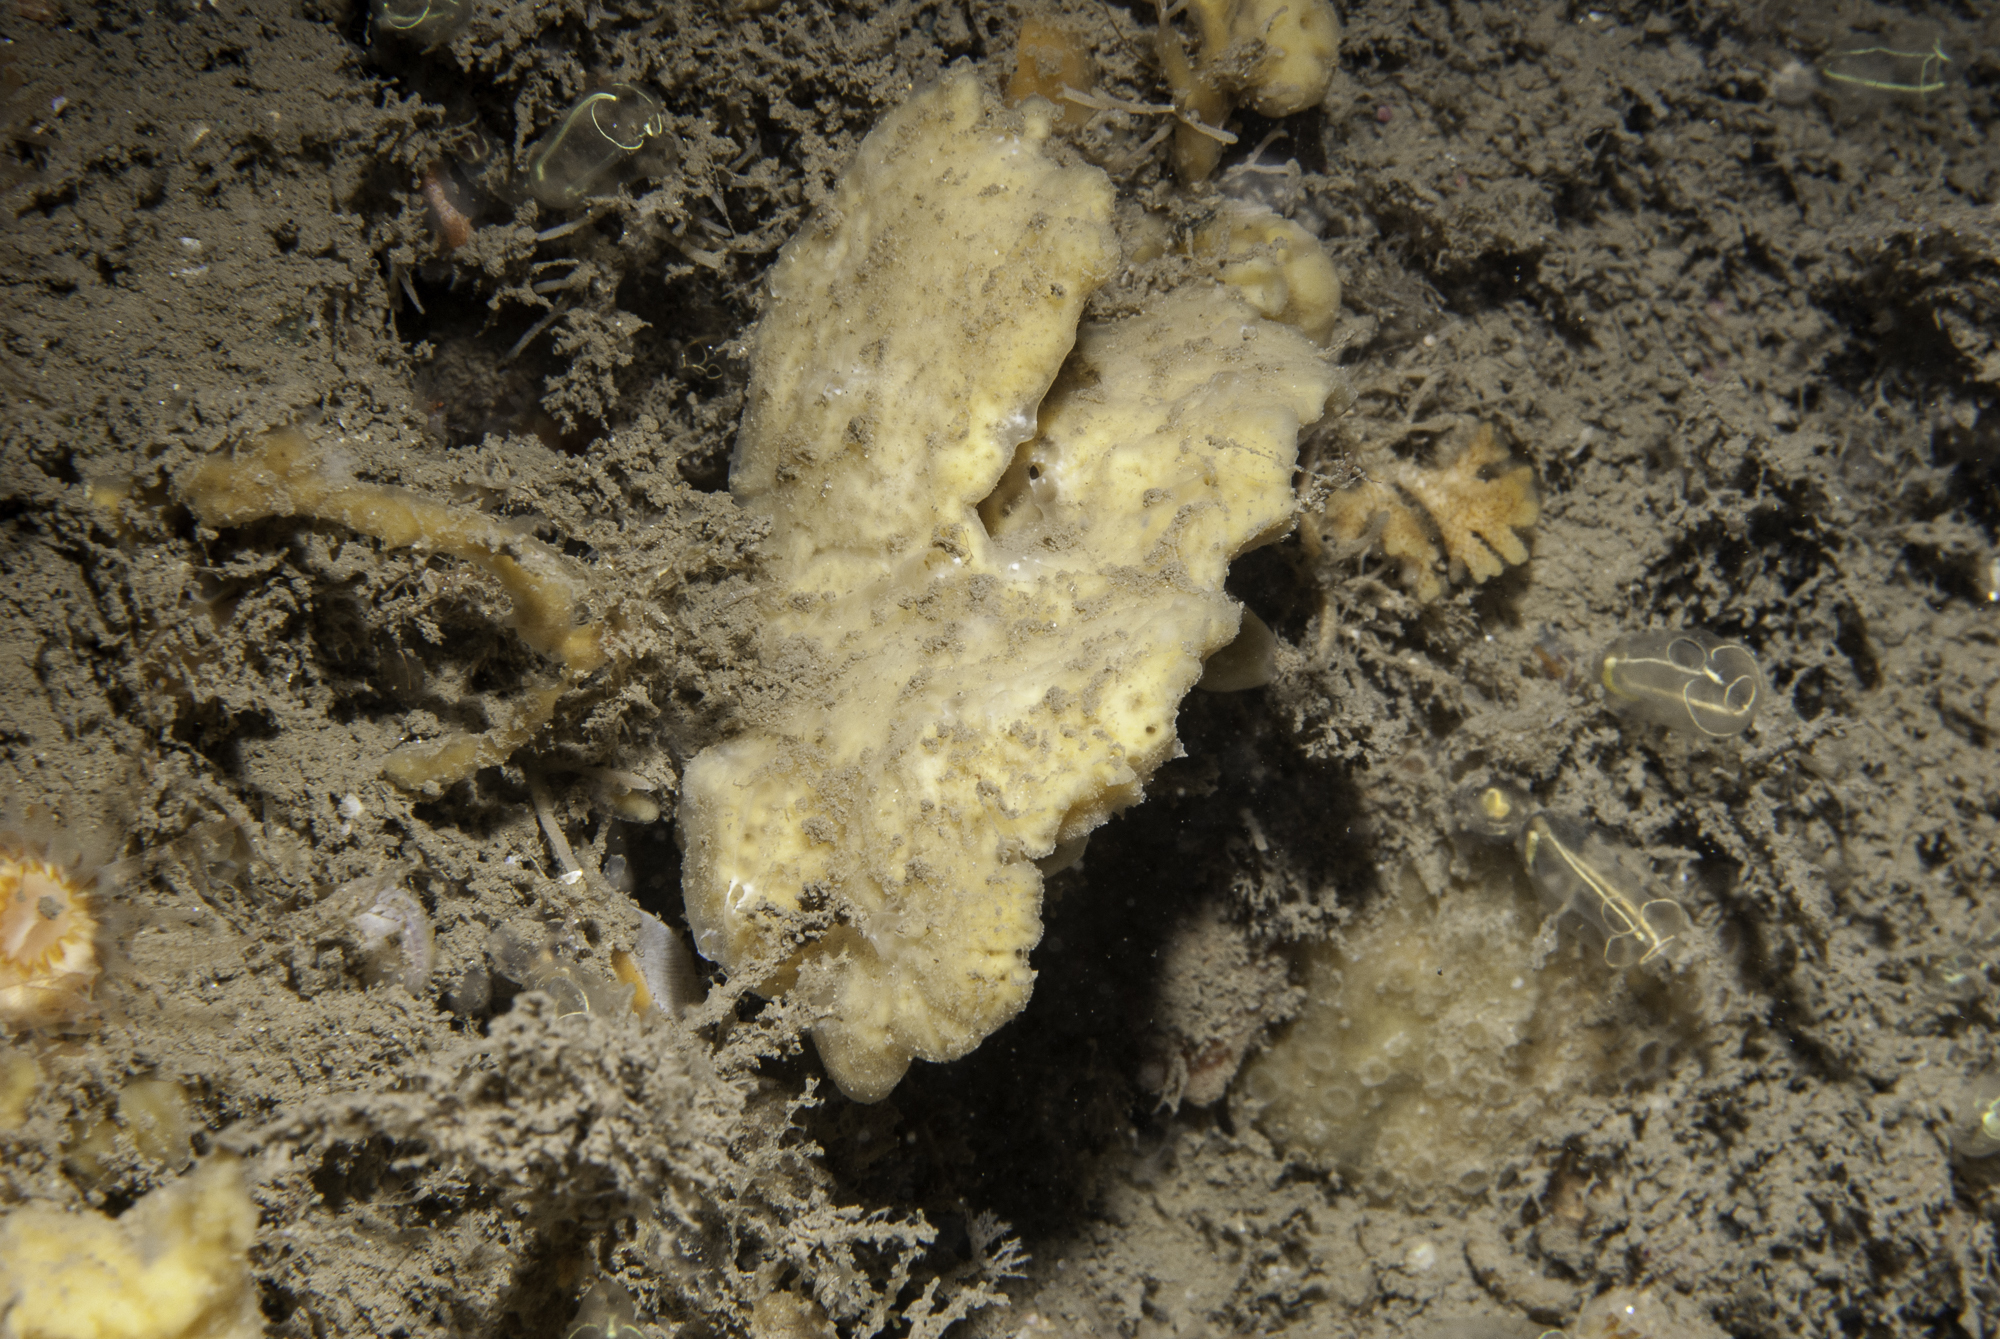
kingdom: Animalia
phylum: Porifera
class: Demospongiae
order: Poecilosclerida
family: Microcionidae
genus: Clathria
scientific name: Clathria barleei
